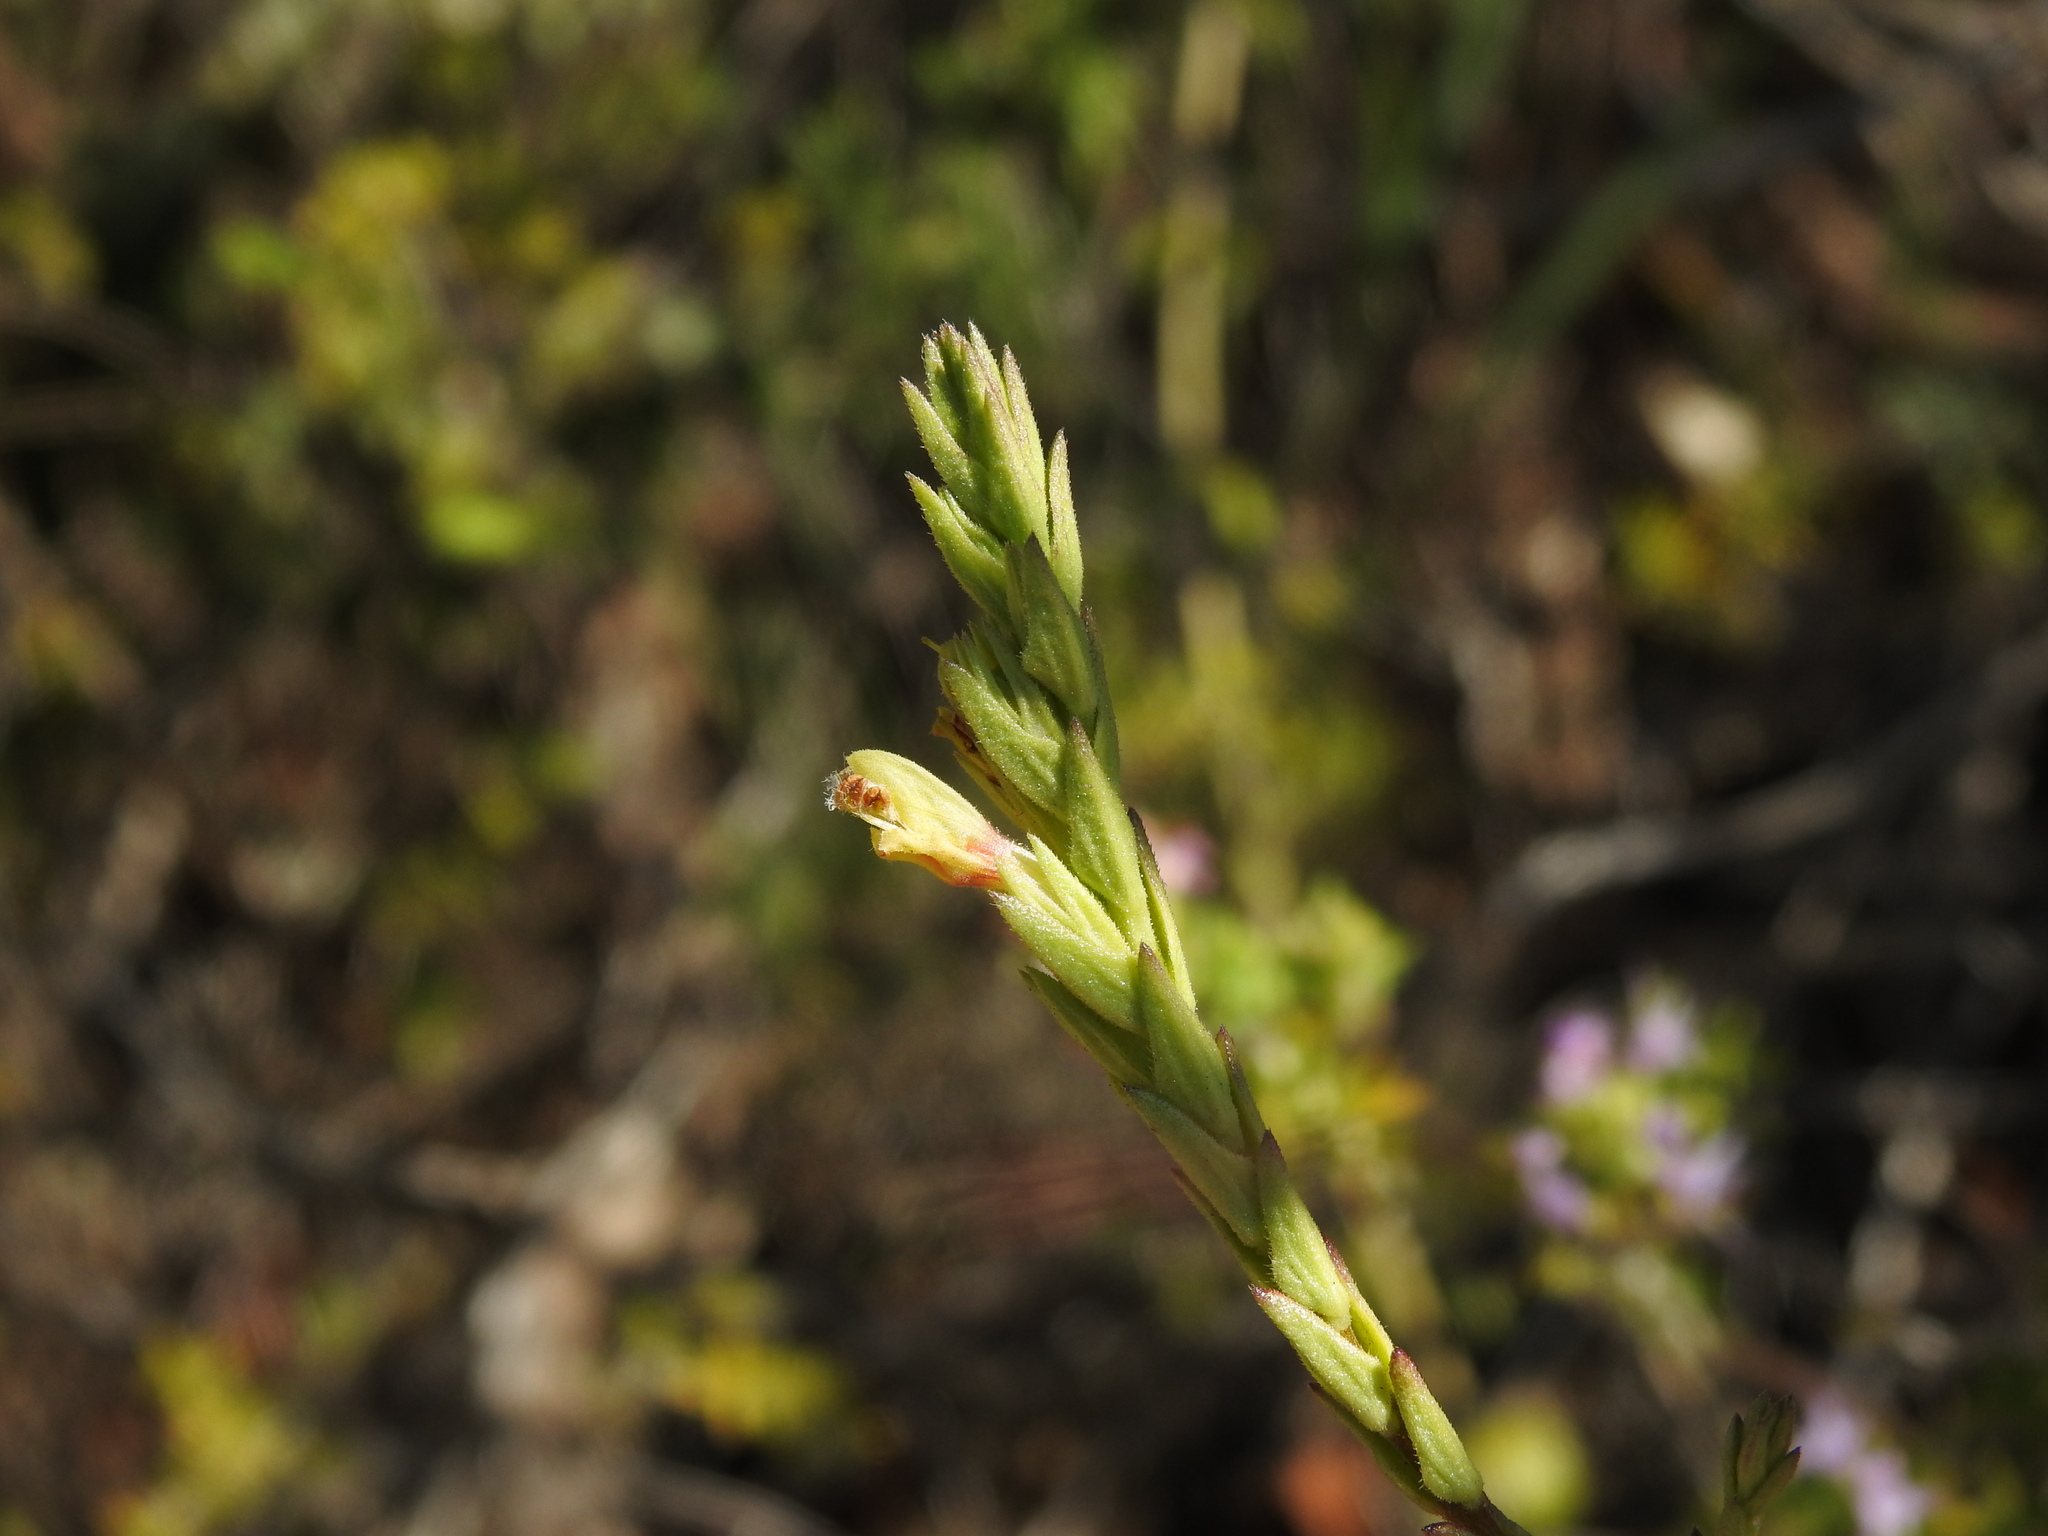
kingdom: Plantae
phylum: Tracheophyta
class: Magnoliopsida
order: Lamiales
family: Orobanchaceae
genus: Nothobartsia
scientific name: Nothobartsia asperrima
